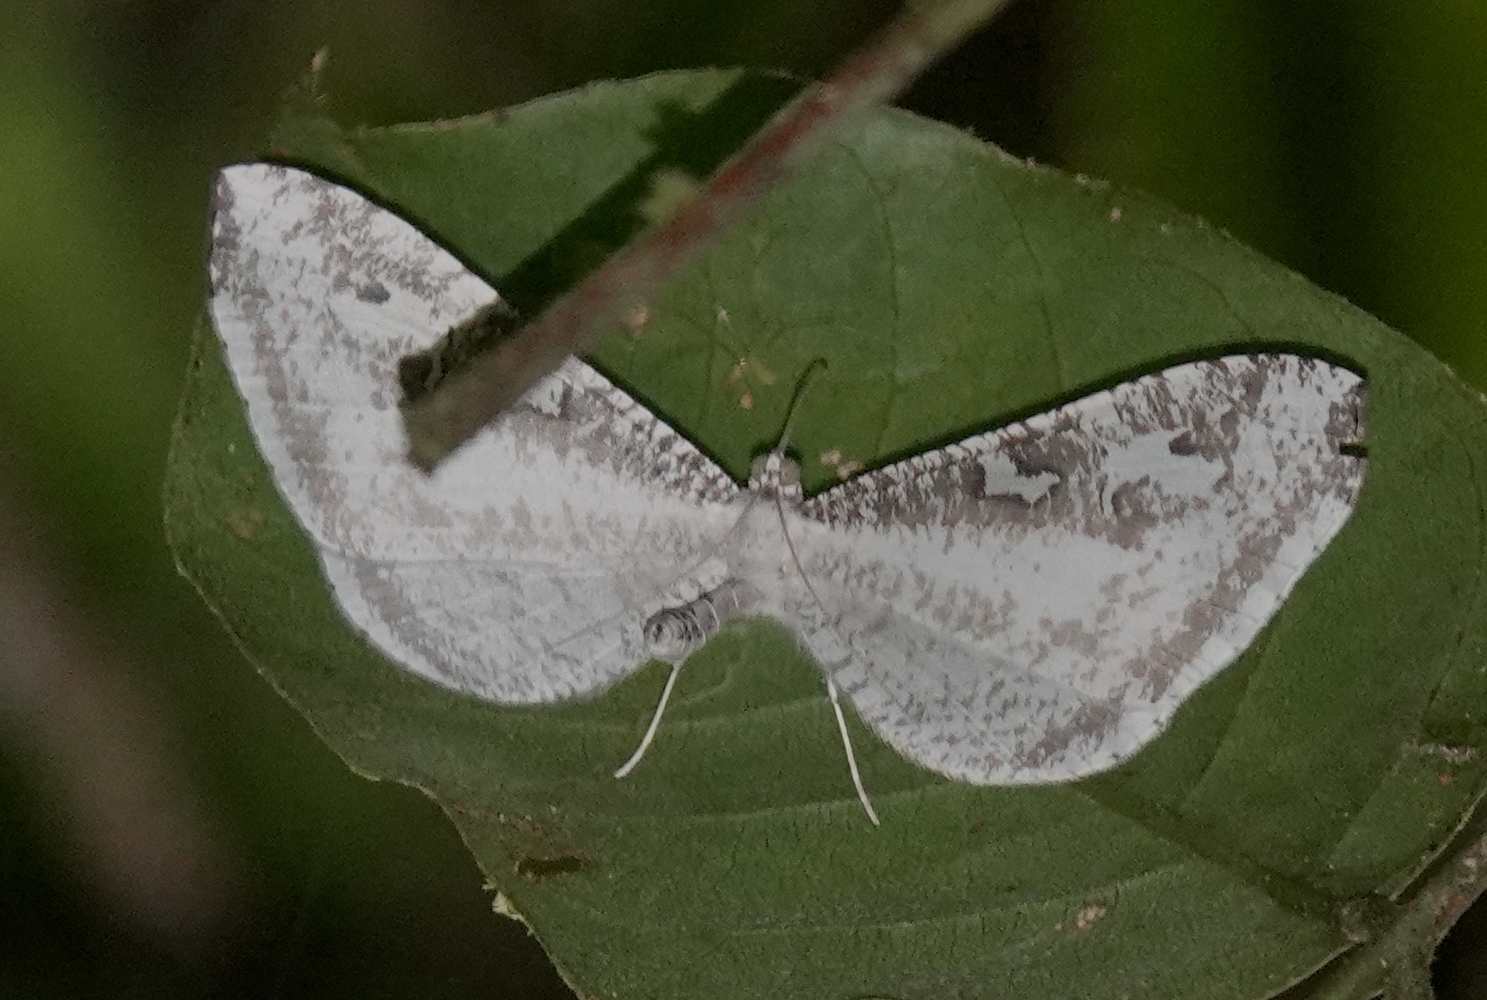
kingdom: Animalia
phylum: Arthropoda
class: Insecta
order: Lepidoptera
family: Hedylidae
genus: Macrosoma
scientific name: Macrosoma tipulata
